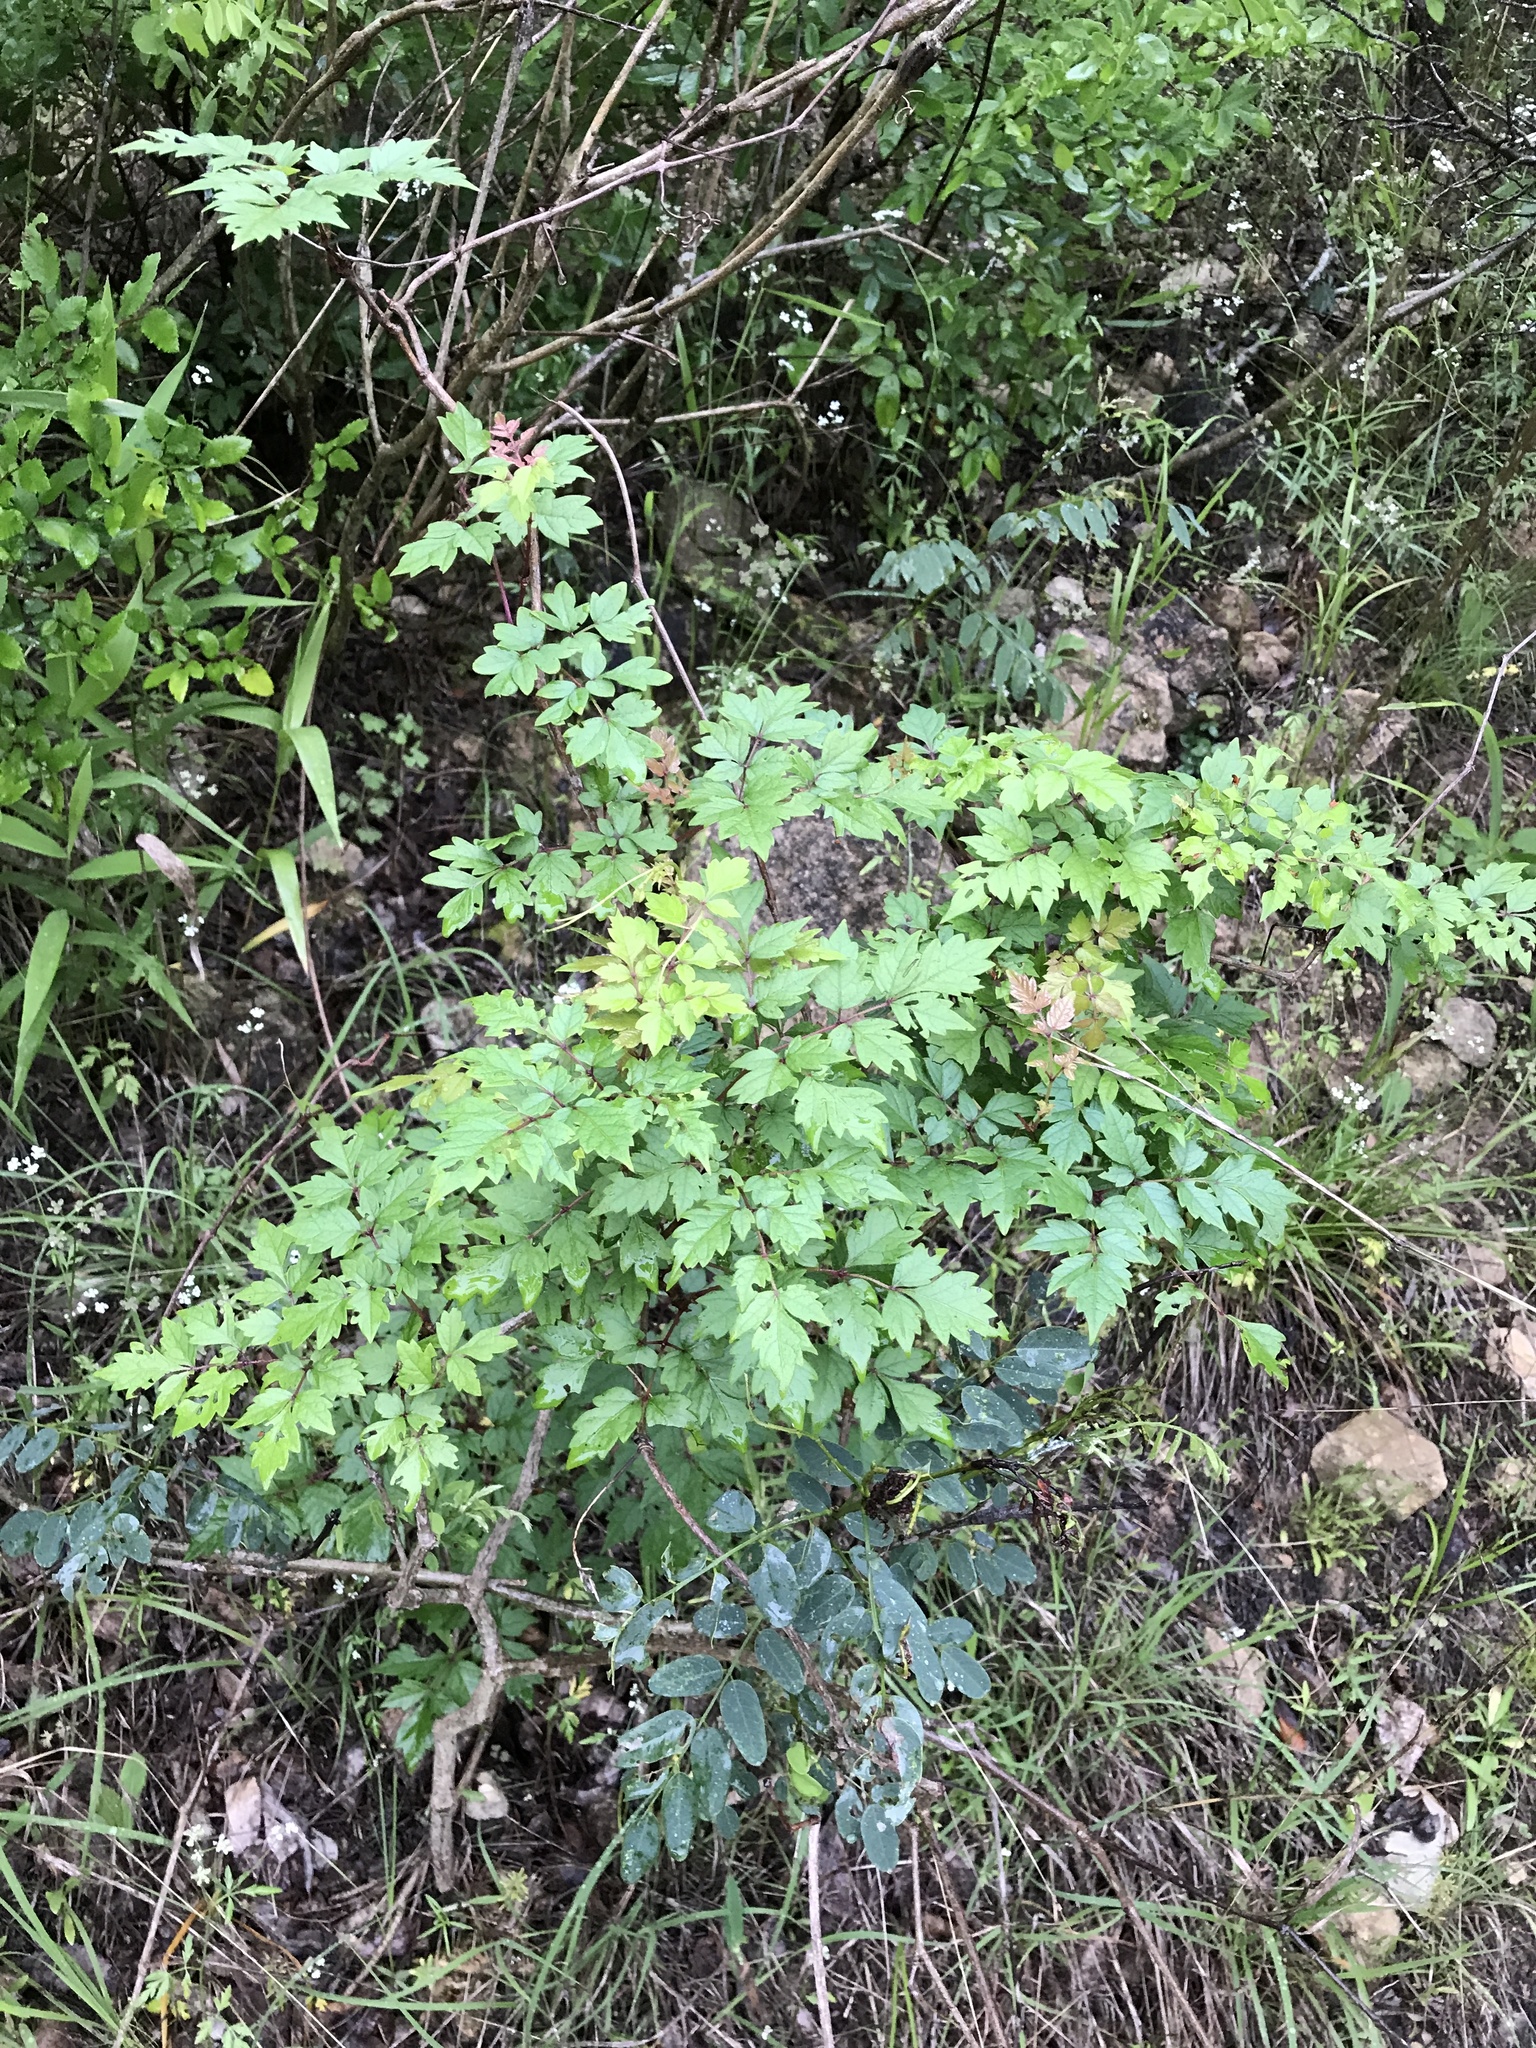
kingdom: Plantae
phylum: Tracheophyta
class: Magnoliopsida
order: Vitales
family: Vitaceae
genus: Nekemias
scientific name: Nekemias arborea
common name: Peppervine
